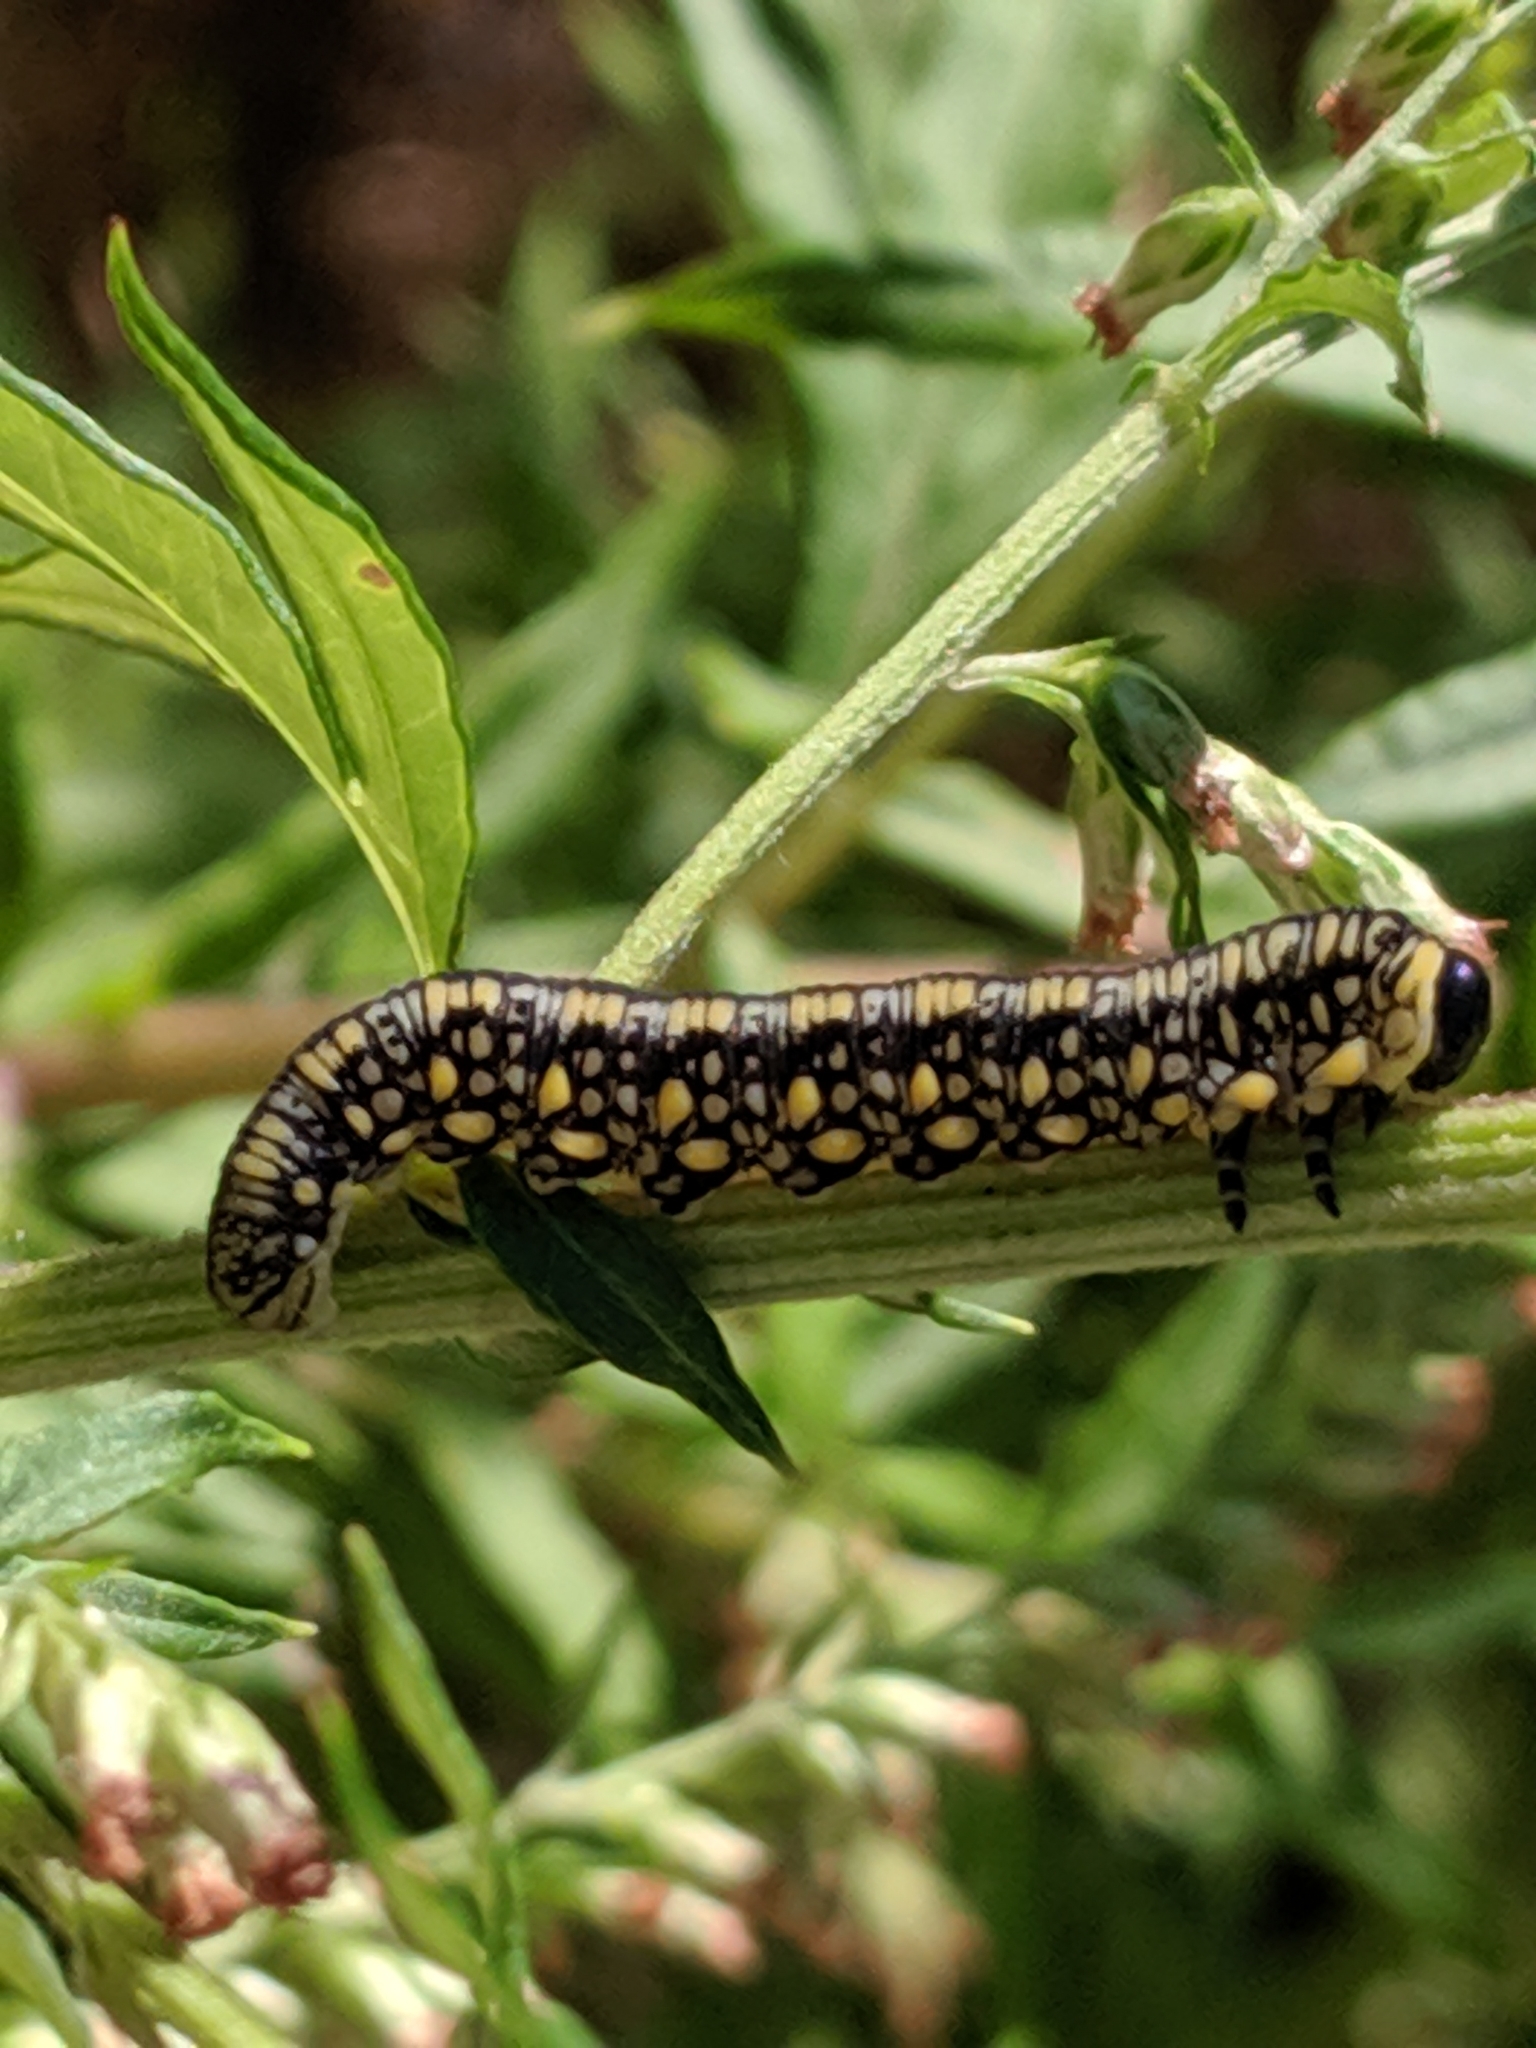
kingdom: Animalia
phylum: Arthropoda
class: Insecta
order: Hymenoptera
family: Diprionidae
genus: Diprion
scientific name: Diprion similis
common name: Pine sawfly
